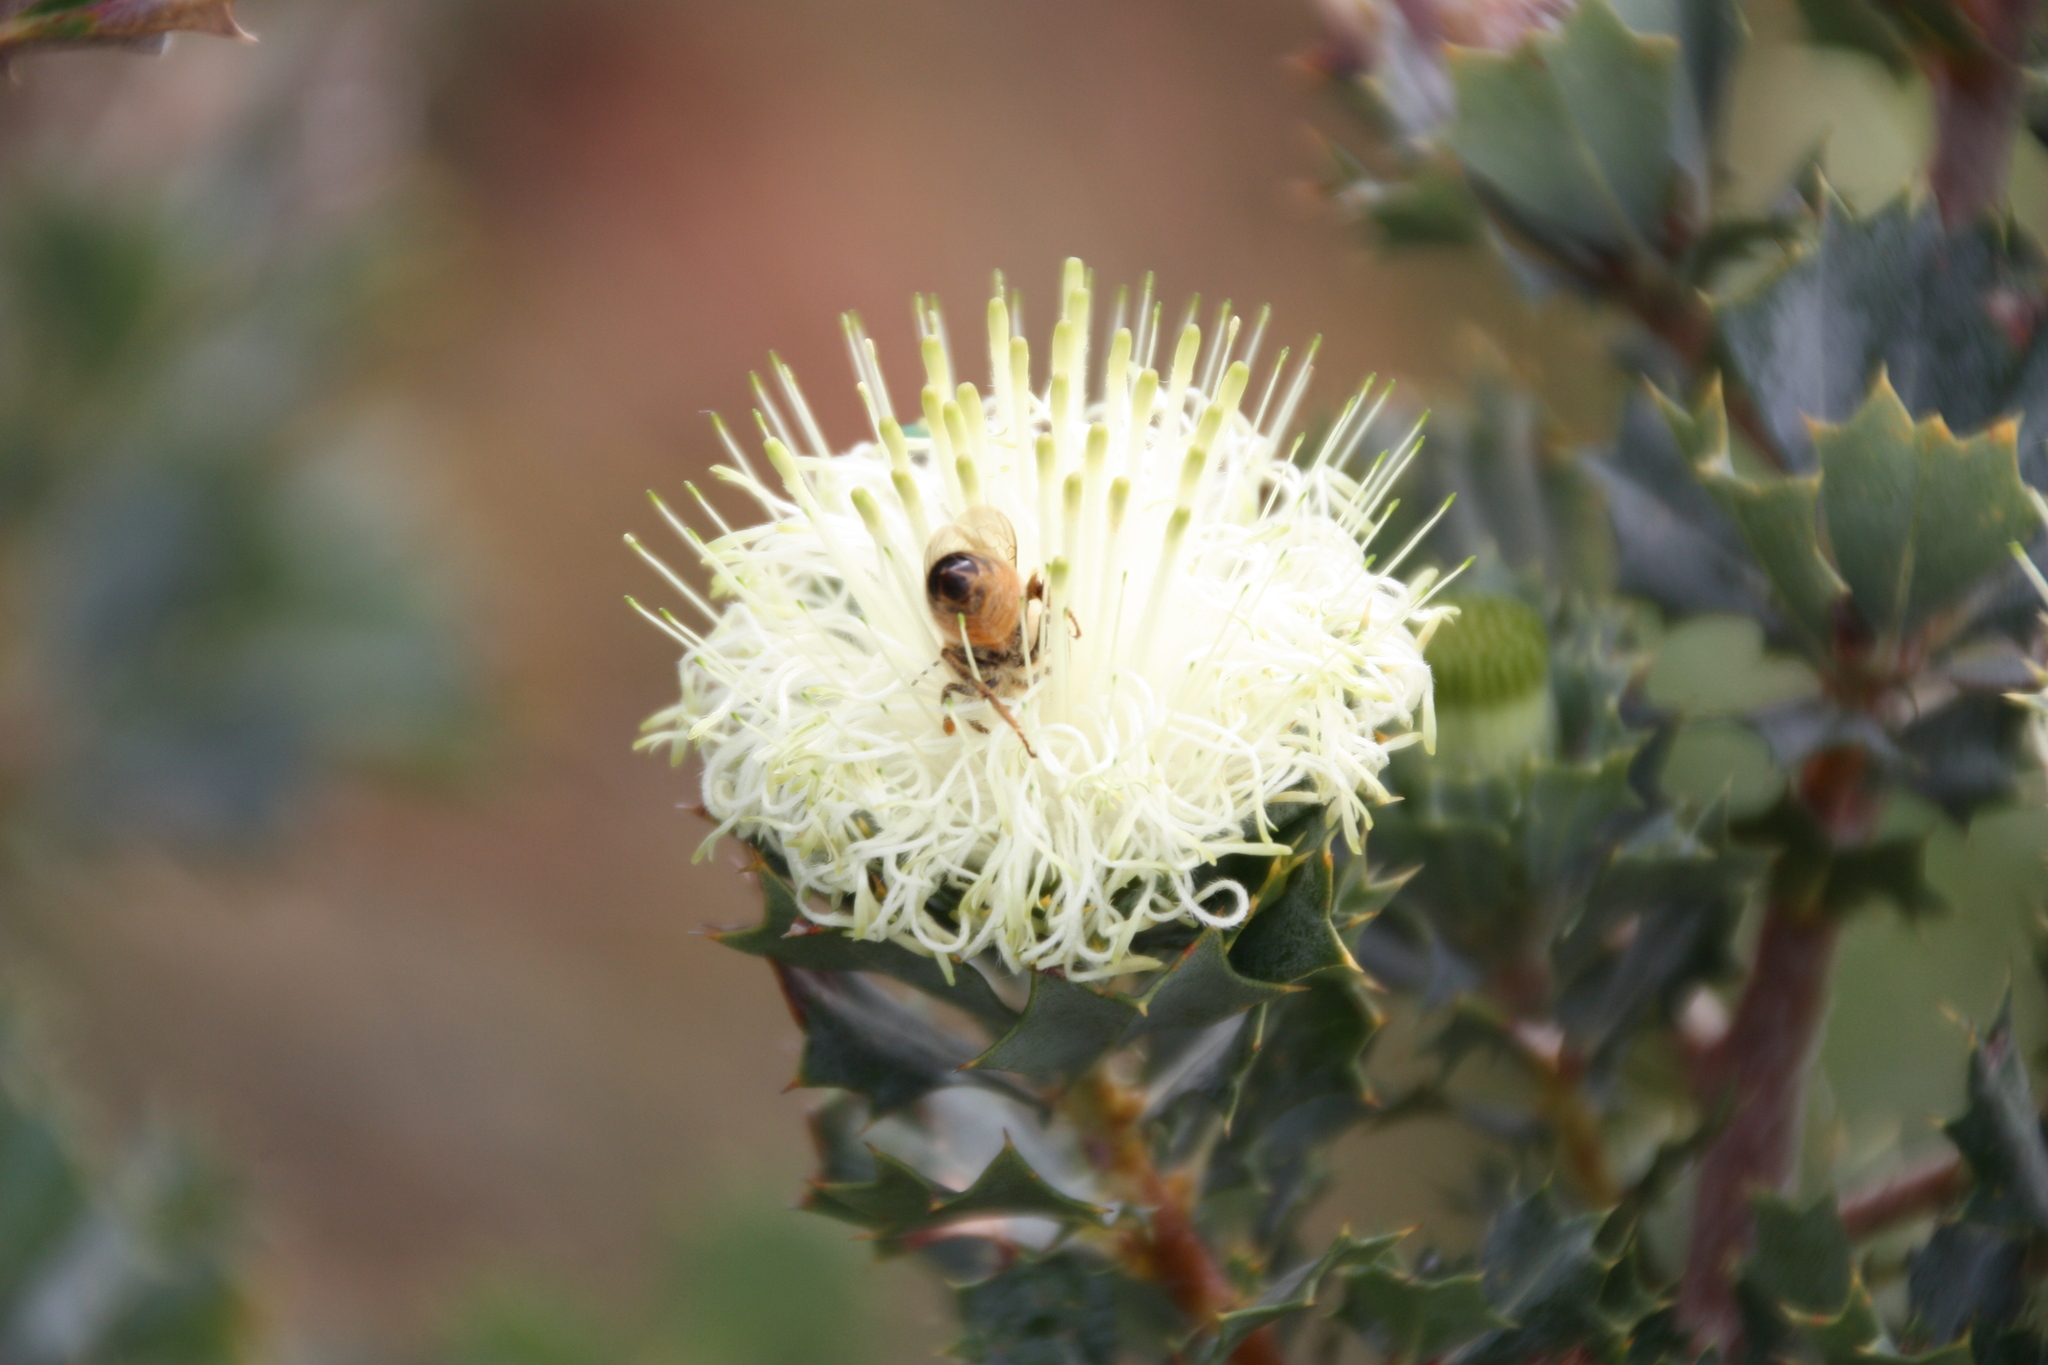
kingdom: Plantae
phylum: Tracheophyta
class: Magnoliopsida
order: Proteales
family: Proteaceae
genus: Banksia
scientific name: Banksia sessilis
